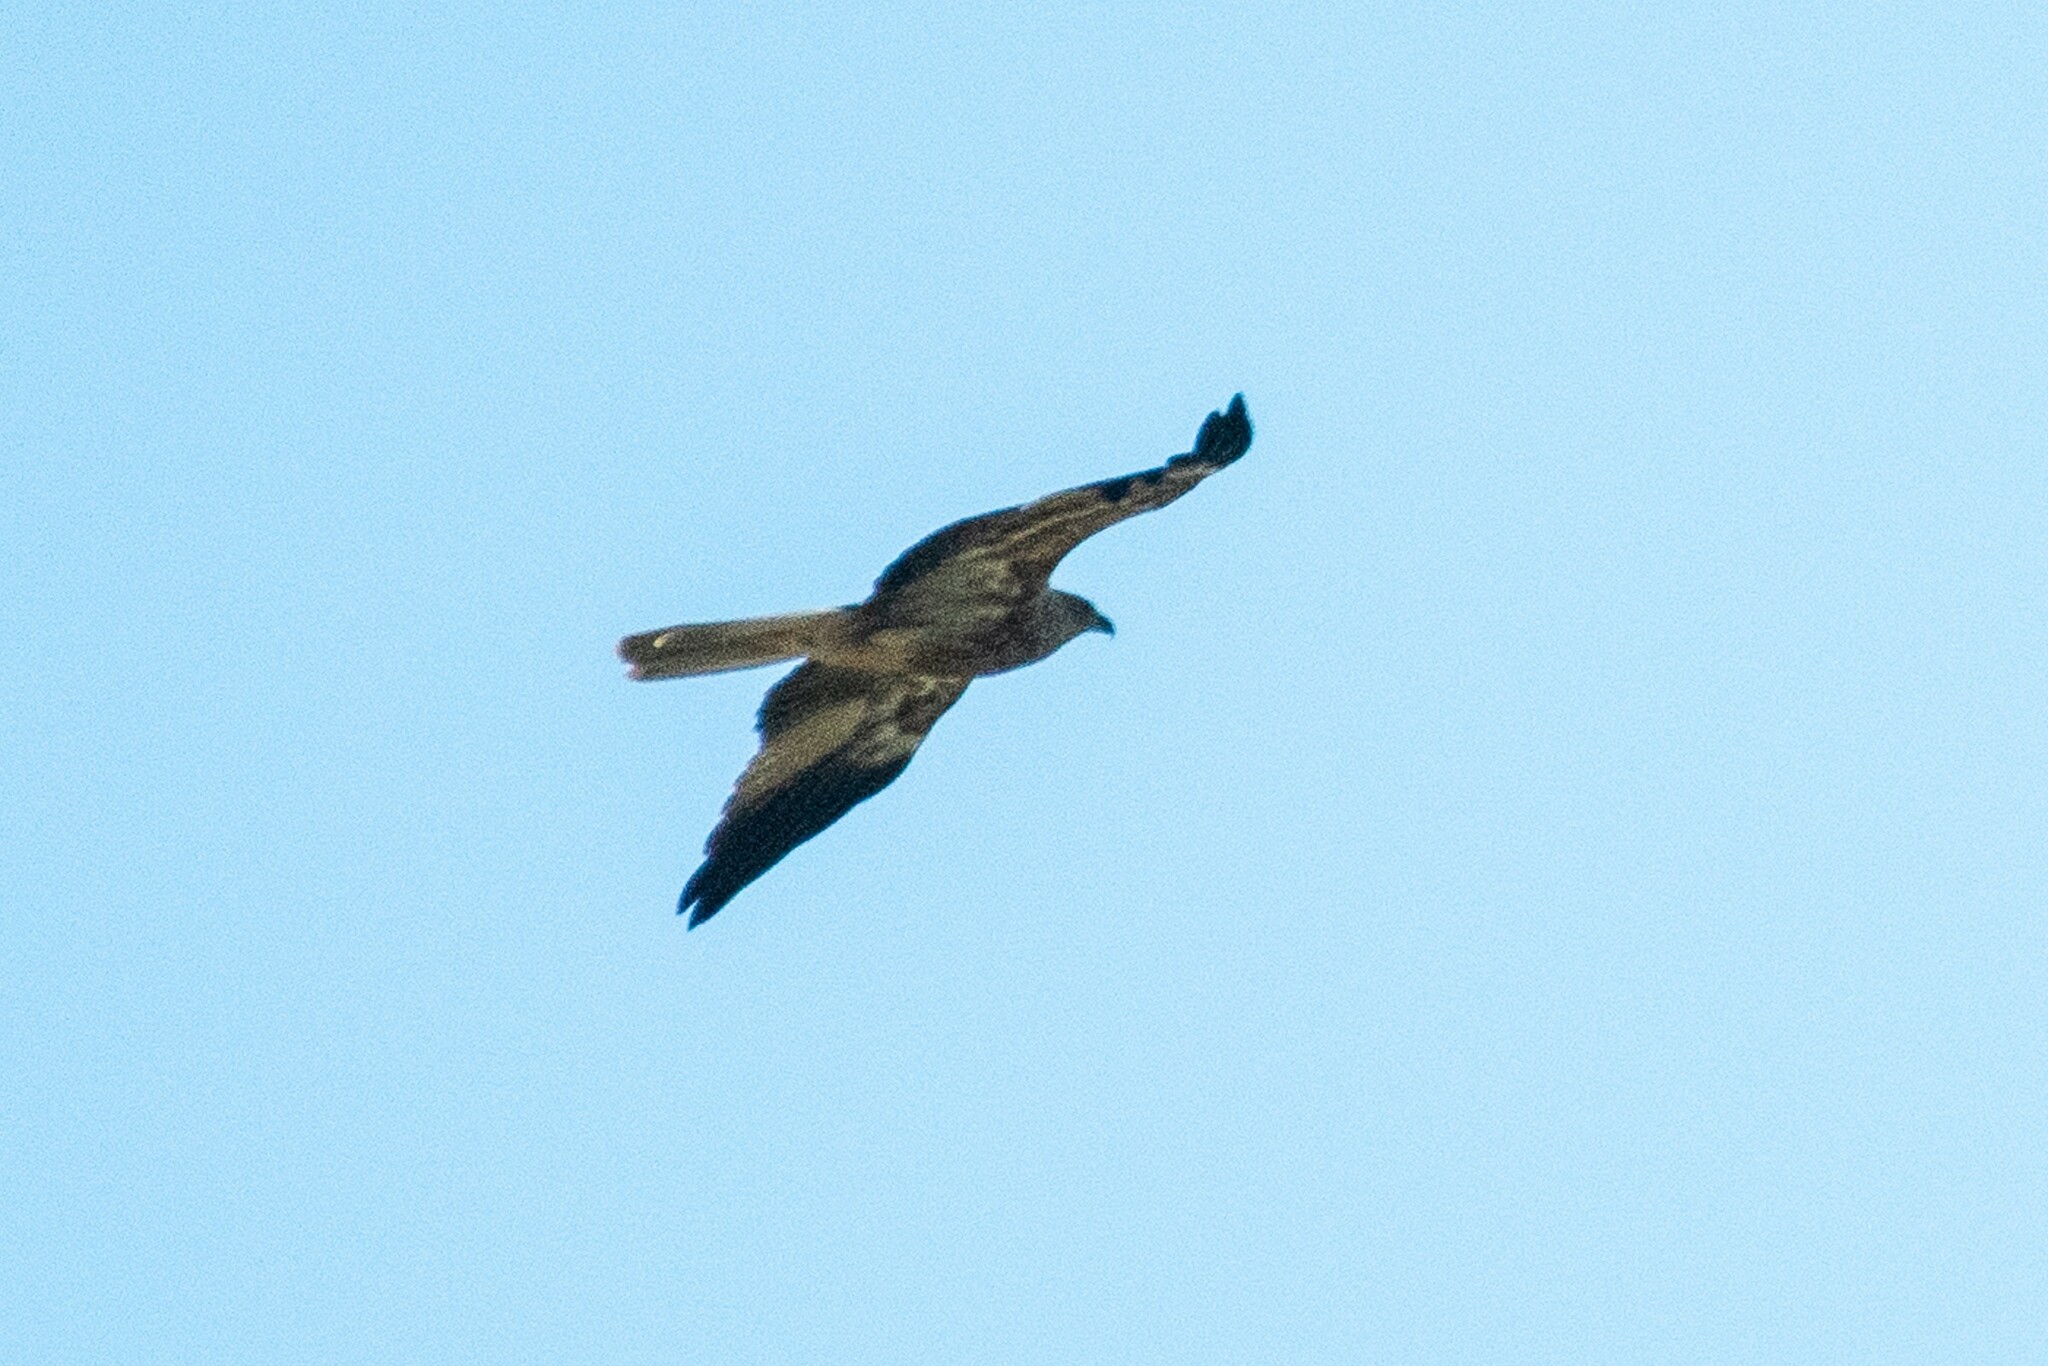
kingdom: Animalia
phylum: Chordata
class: Aves
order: Accipitriformes
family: Accipitridae
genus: Haliastur
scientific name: Haliastur sphenurus
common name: Whistling kite
